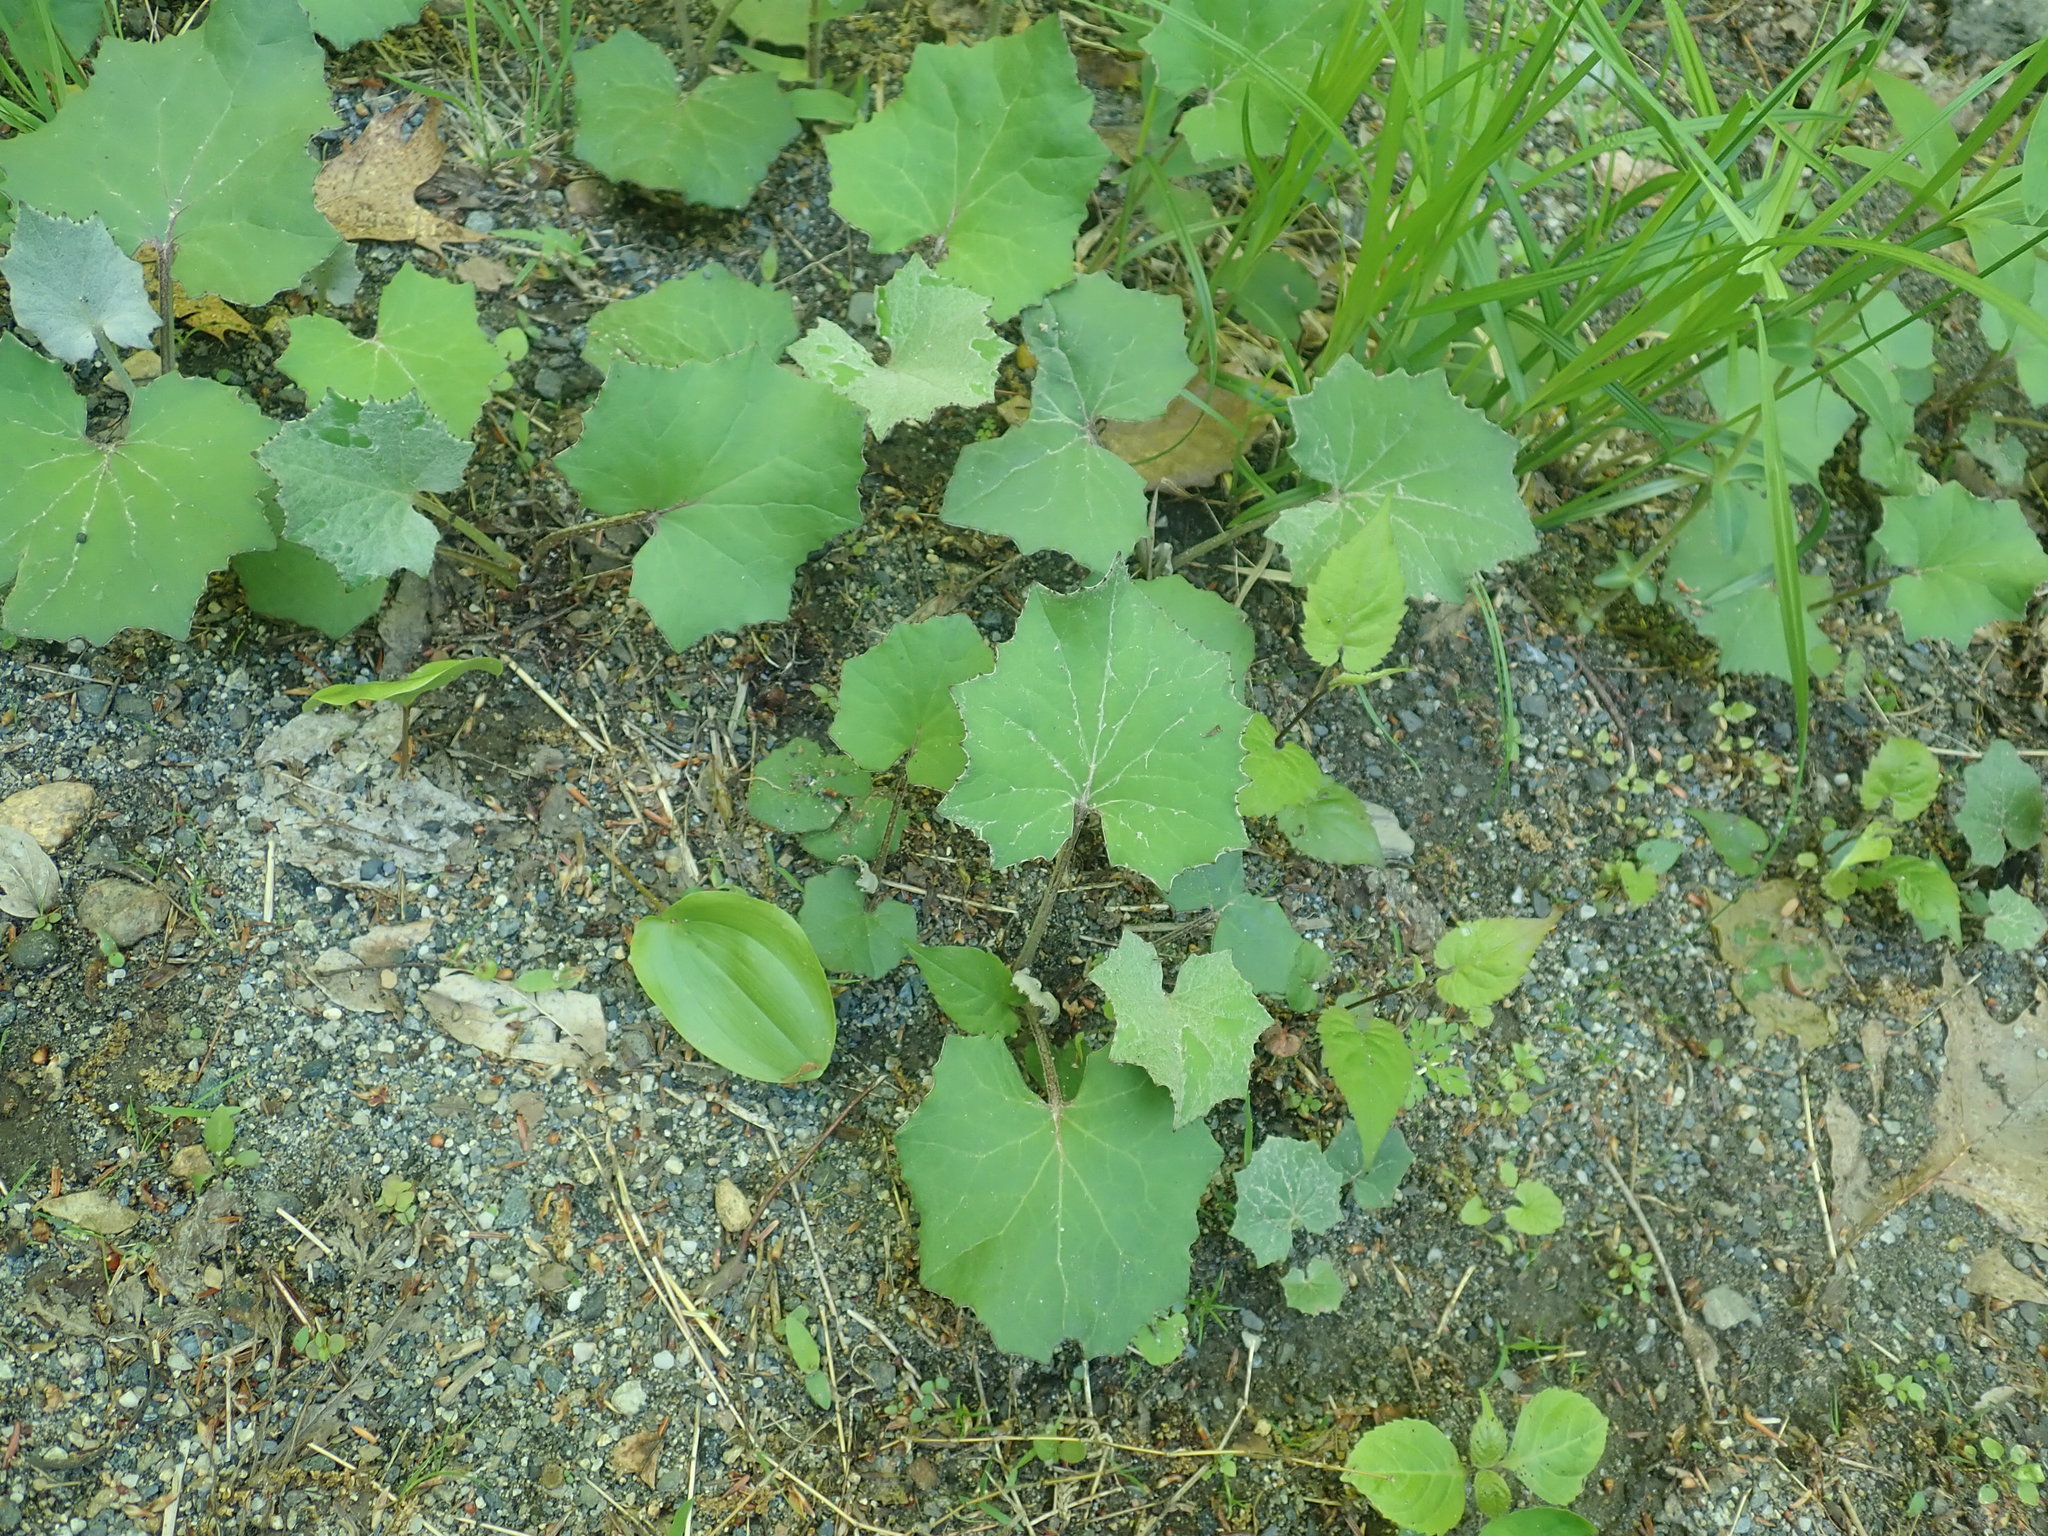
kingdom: Plantae
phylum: Tracheophyta
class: Magnoliopsida
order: Asterales
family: Asteraceae
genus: Tussilago
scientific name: Tussilago farfara
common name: Coltsfoot
